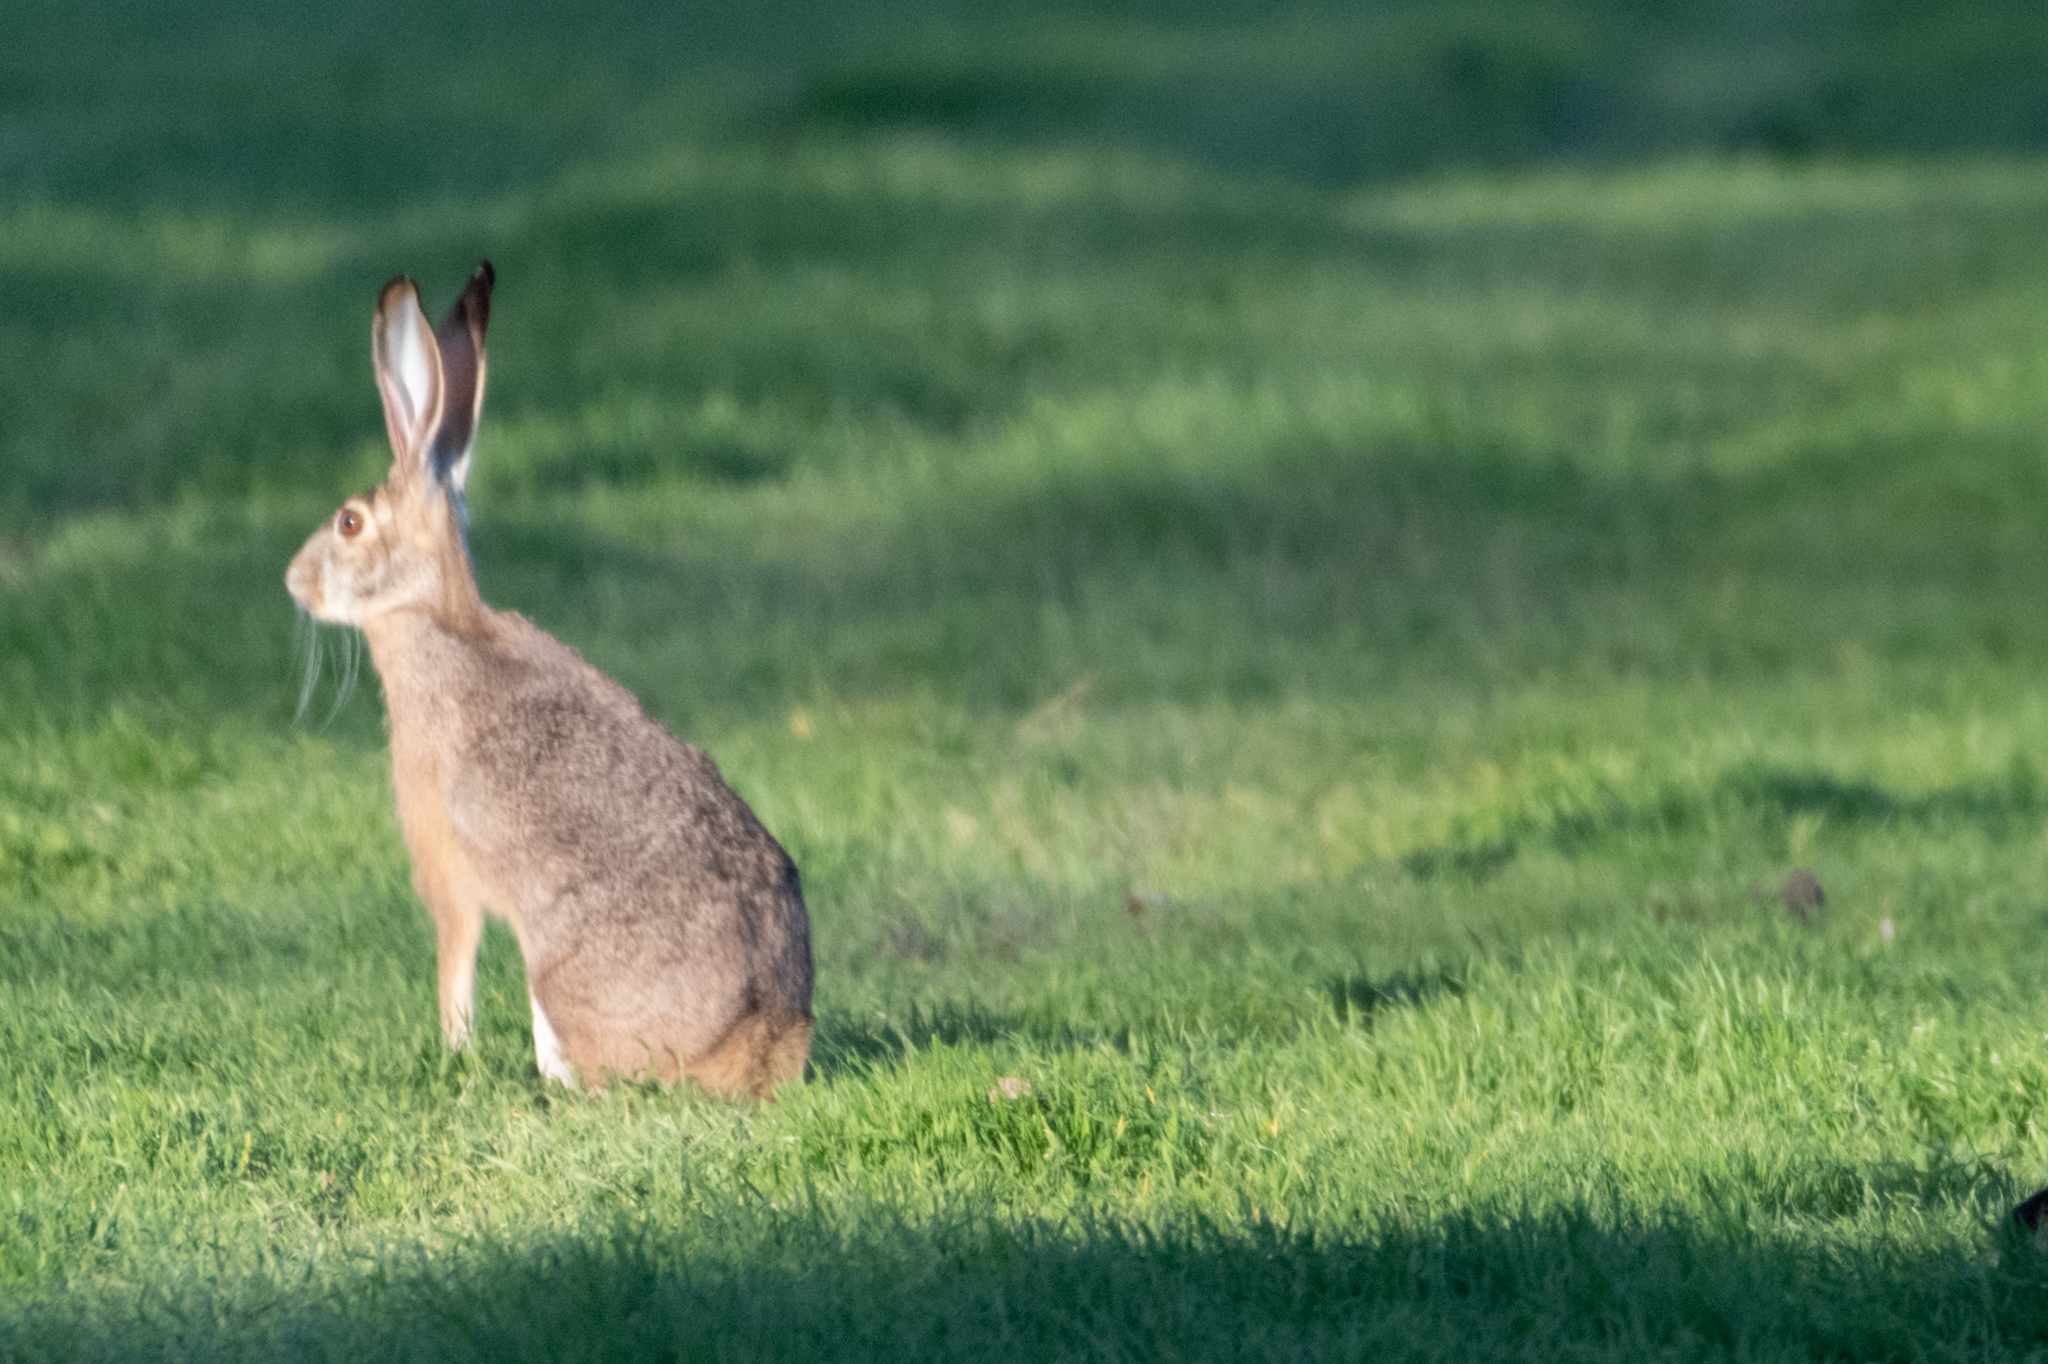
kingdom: Animalia
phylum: Chordata
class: Mammalia
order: Lagomorpha
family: Leporidae
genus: Lepus
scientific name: Lepus californicus
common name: Black-tailed jackrabbit
